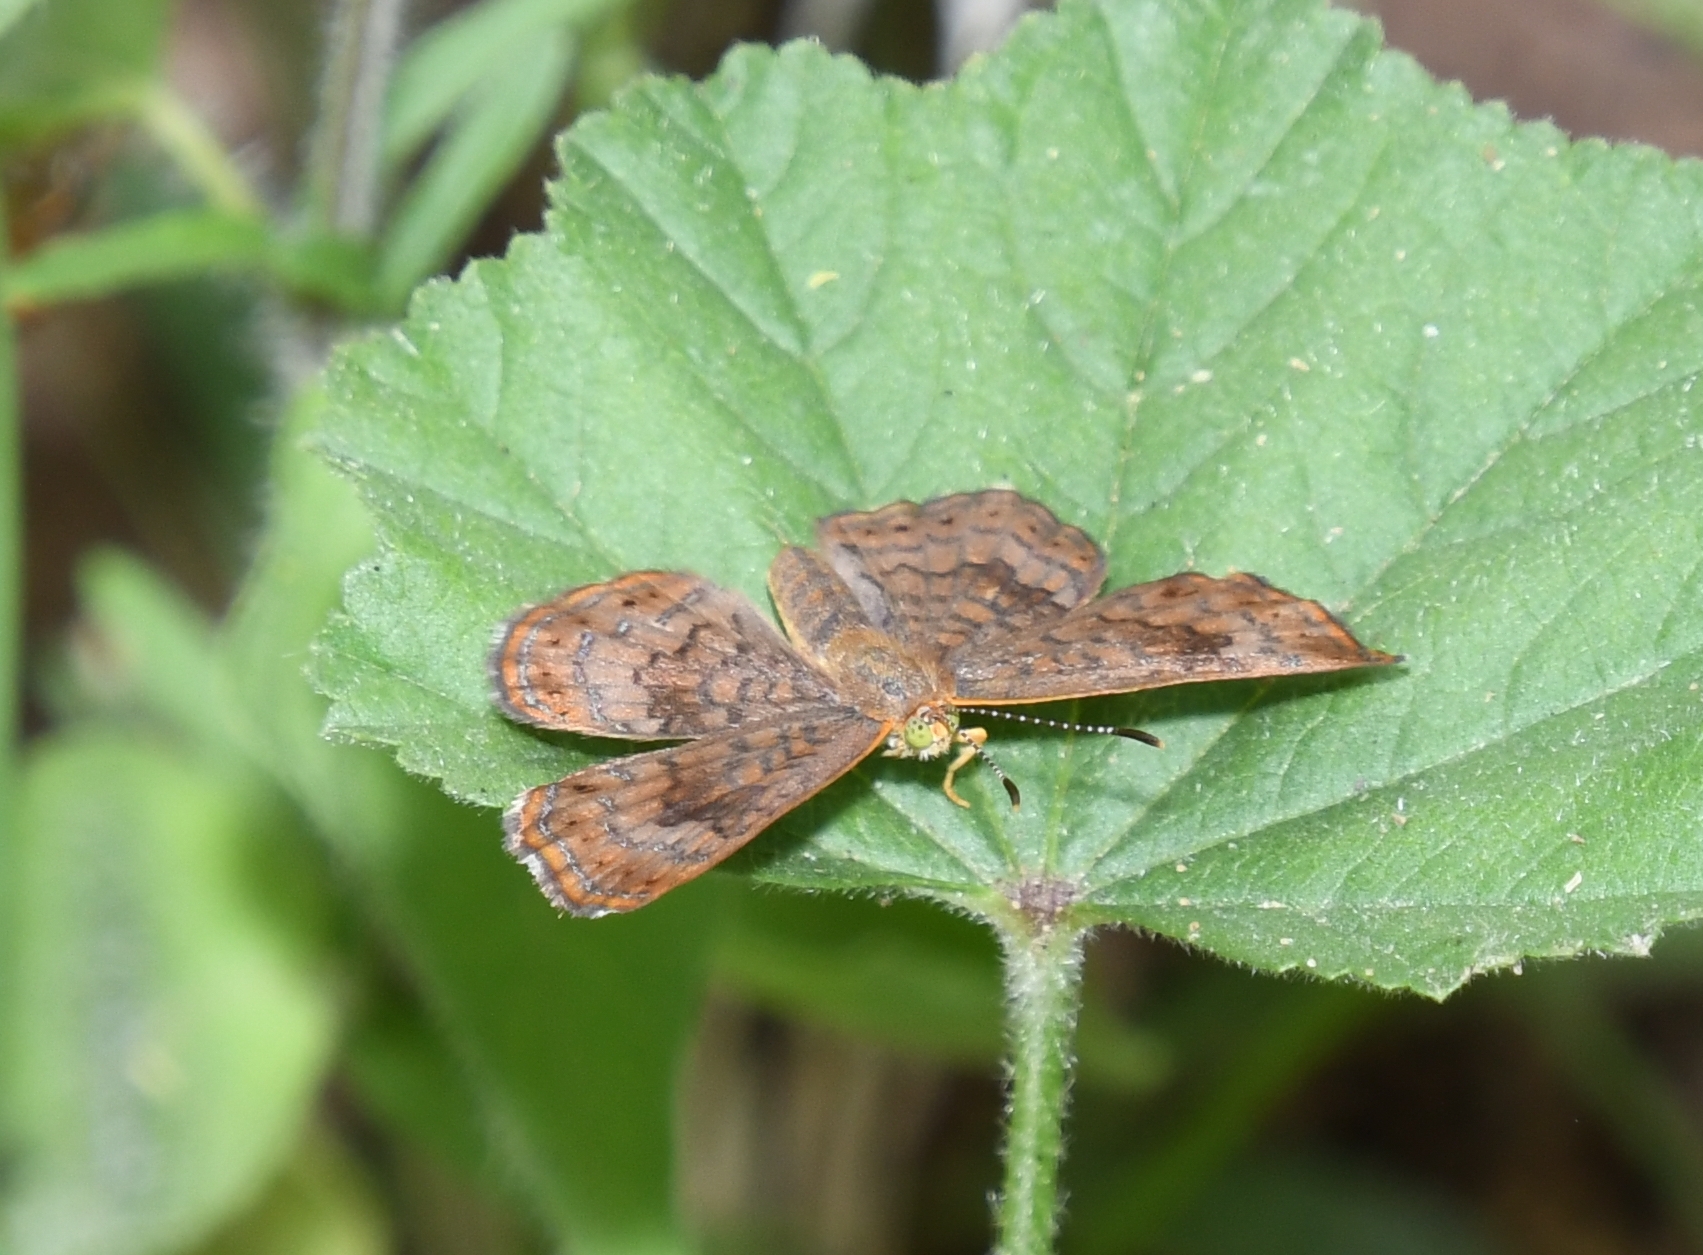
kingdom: Animalia
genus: Calephelis
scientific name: Calephelis nemesis
